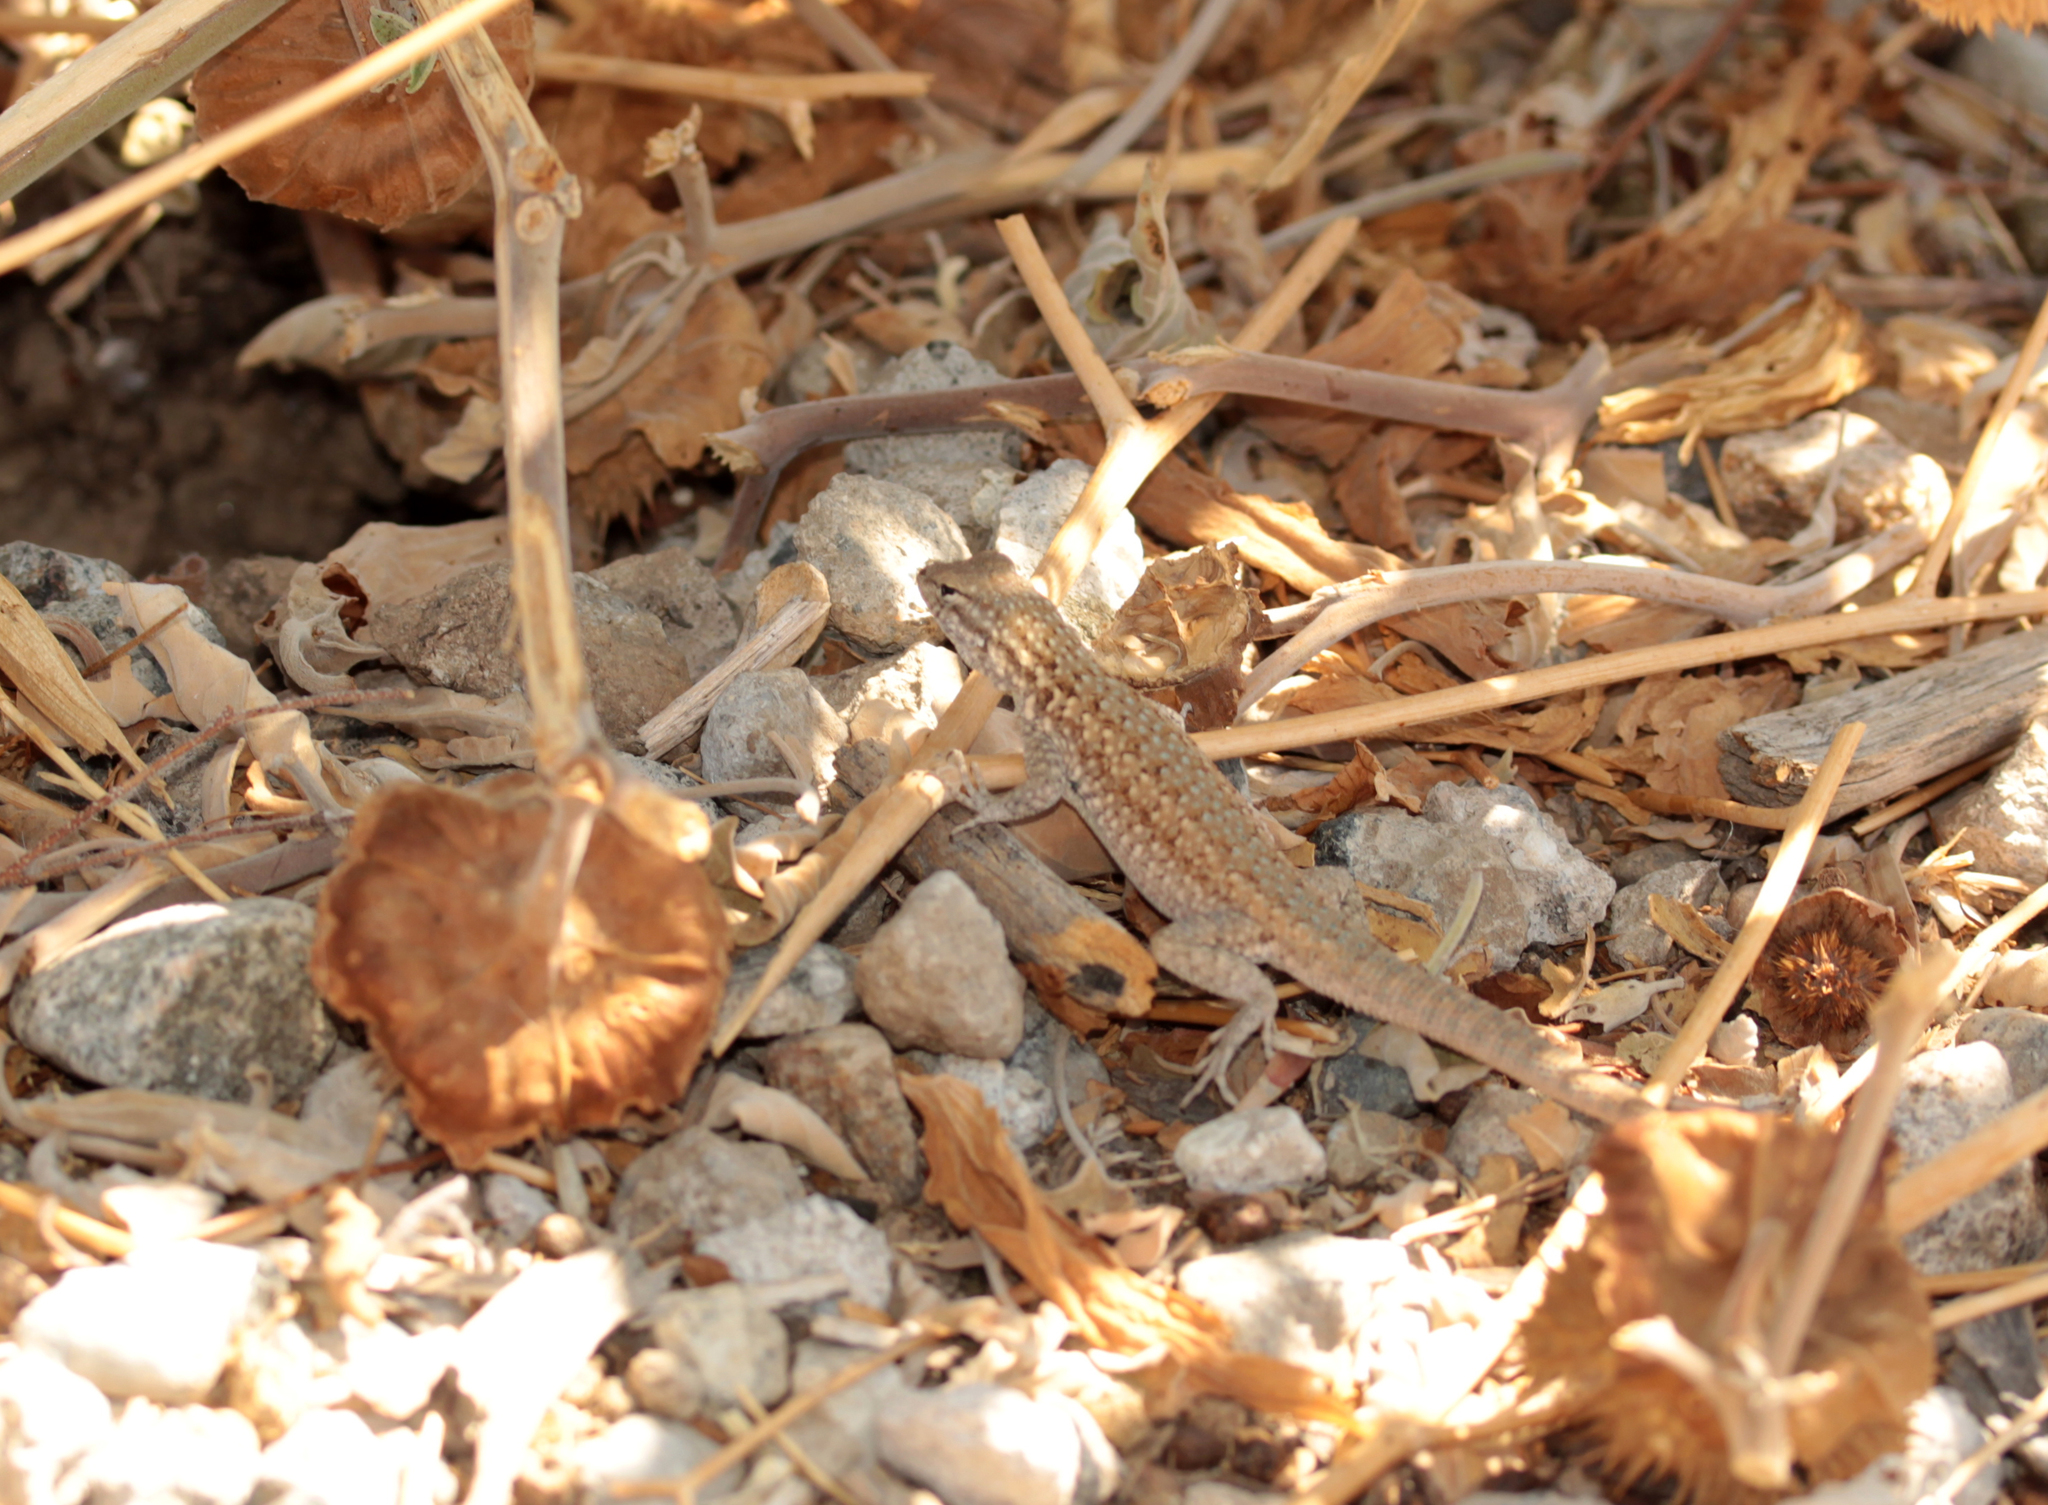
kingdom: Animalia
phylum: Chordata
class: Squamata
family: Phrynosomatidae
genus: Uta
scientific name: Uta stansburiana
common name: Side-blotched lizard
